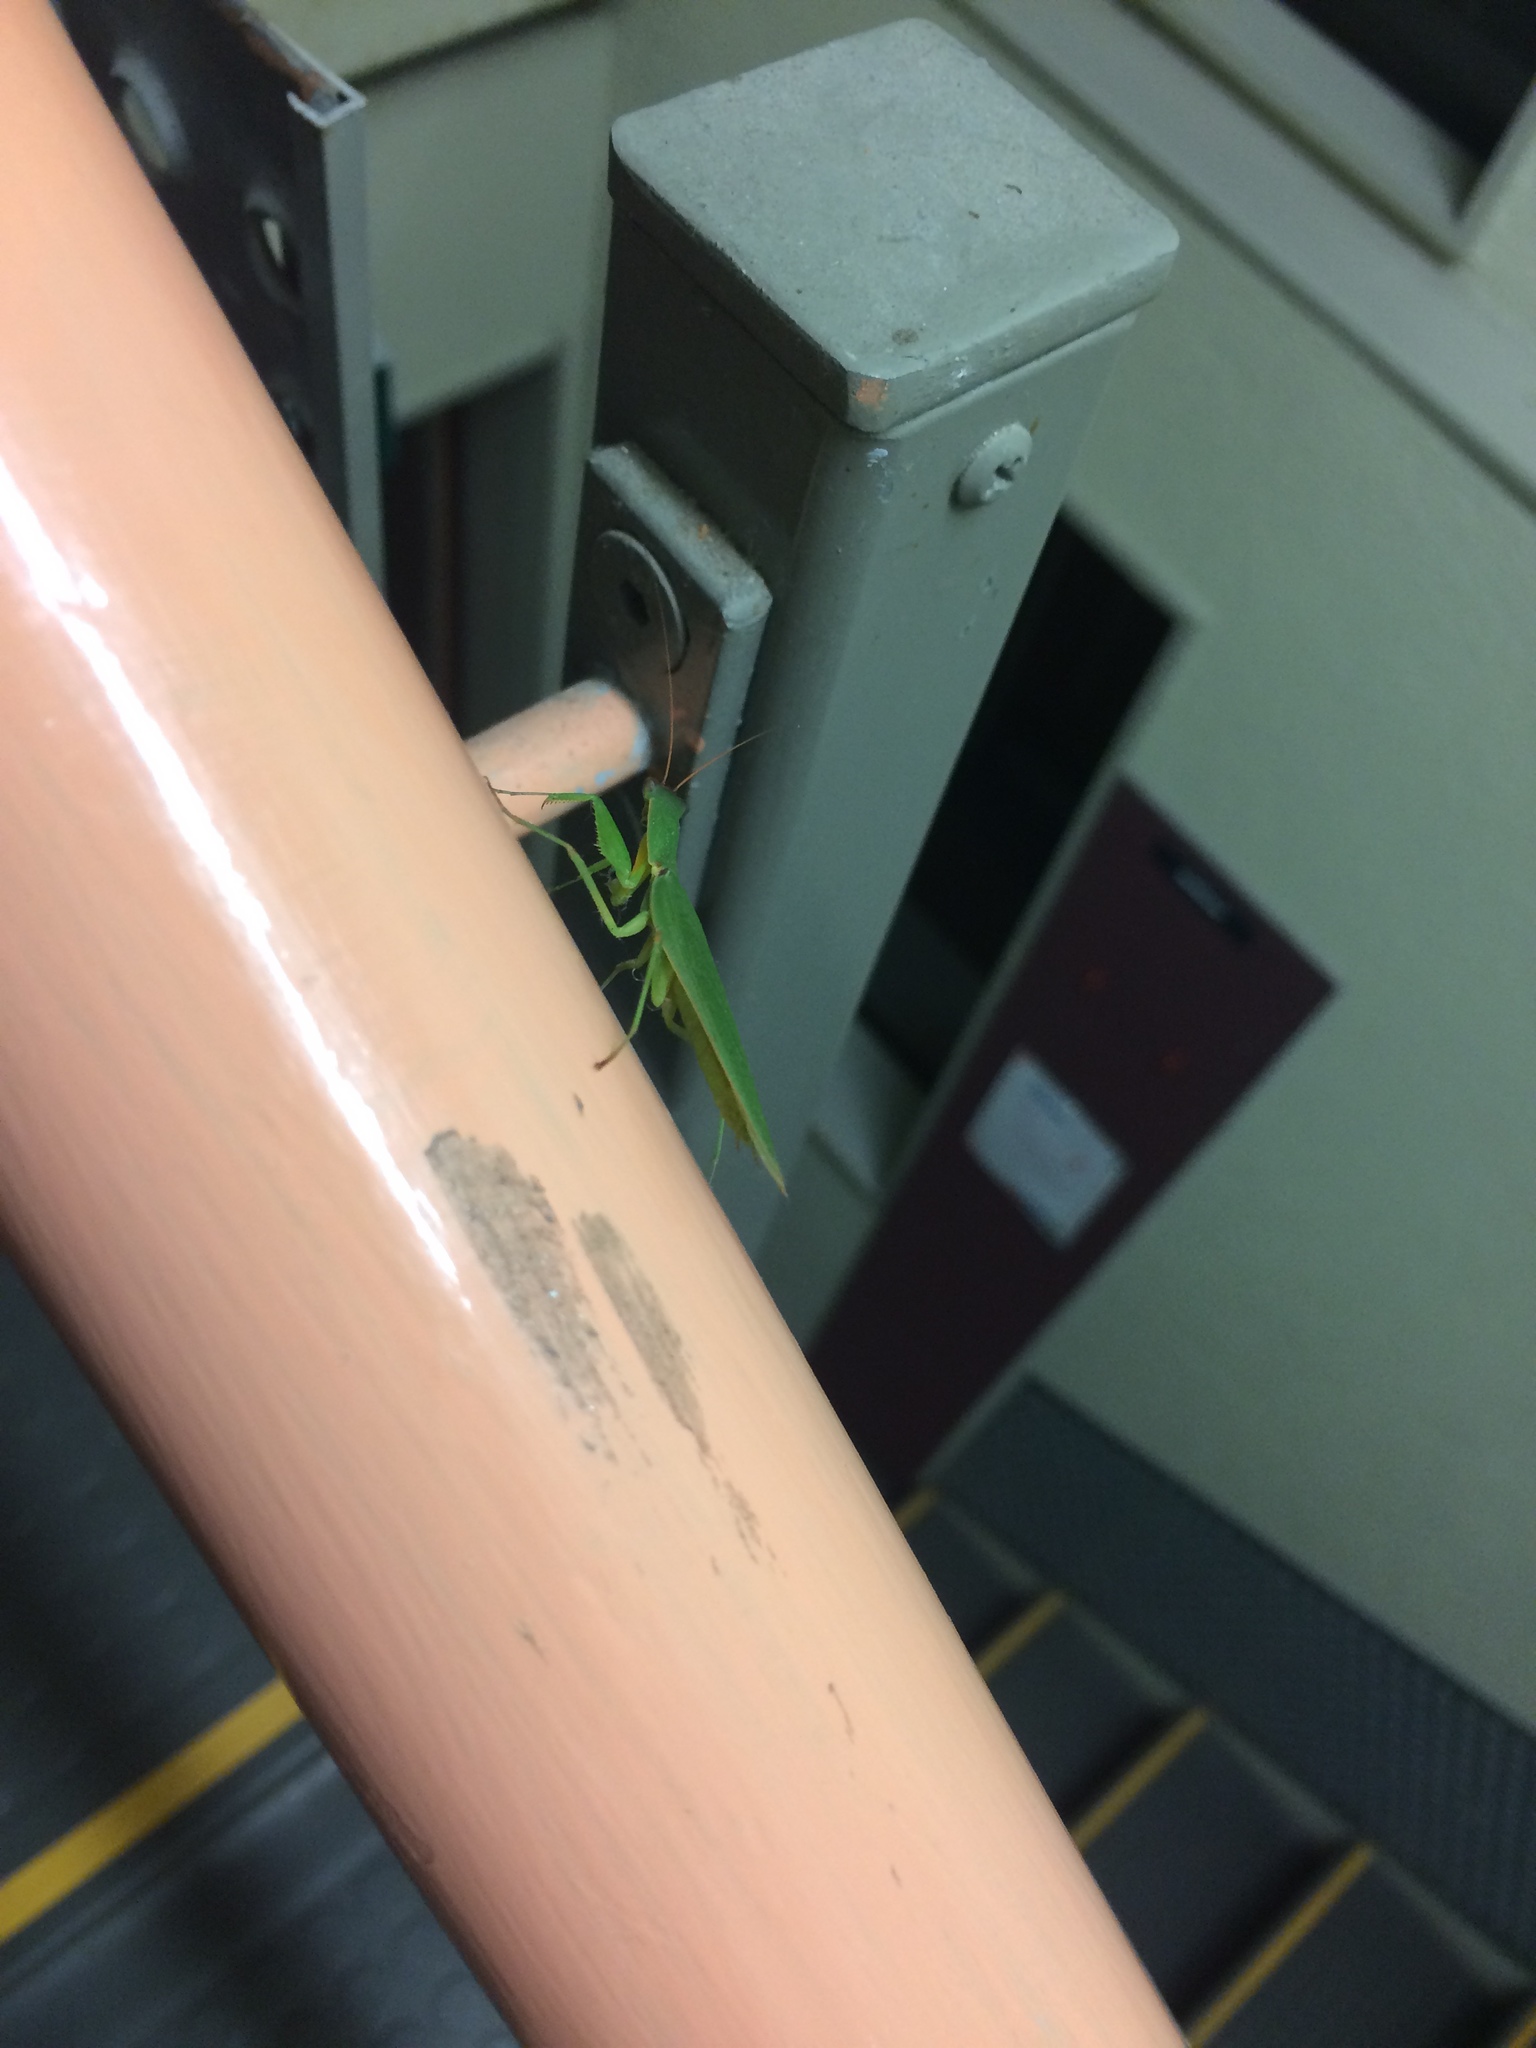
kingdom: Animalia
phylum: Arthropoda
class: Insecta
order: Mantodea
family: Mantidae
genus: Orthodera
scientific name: Orthodera novaezealandiae
